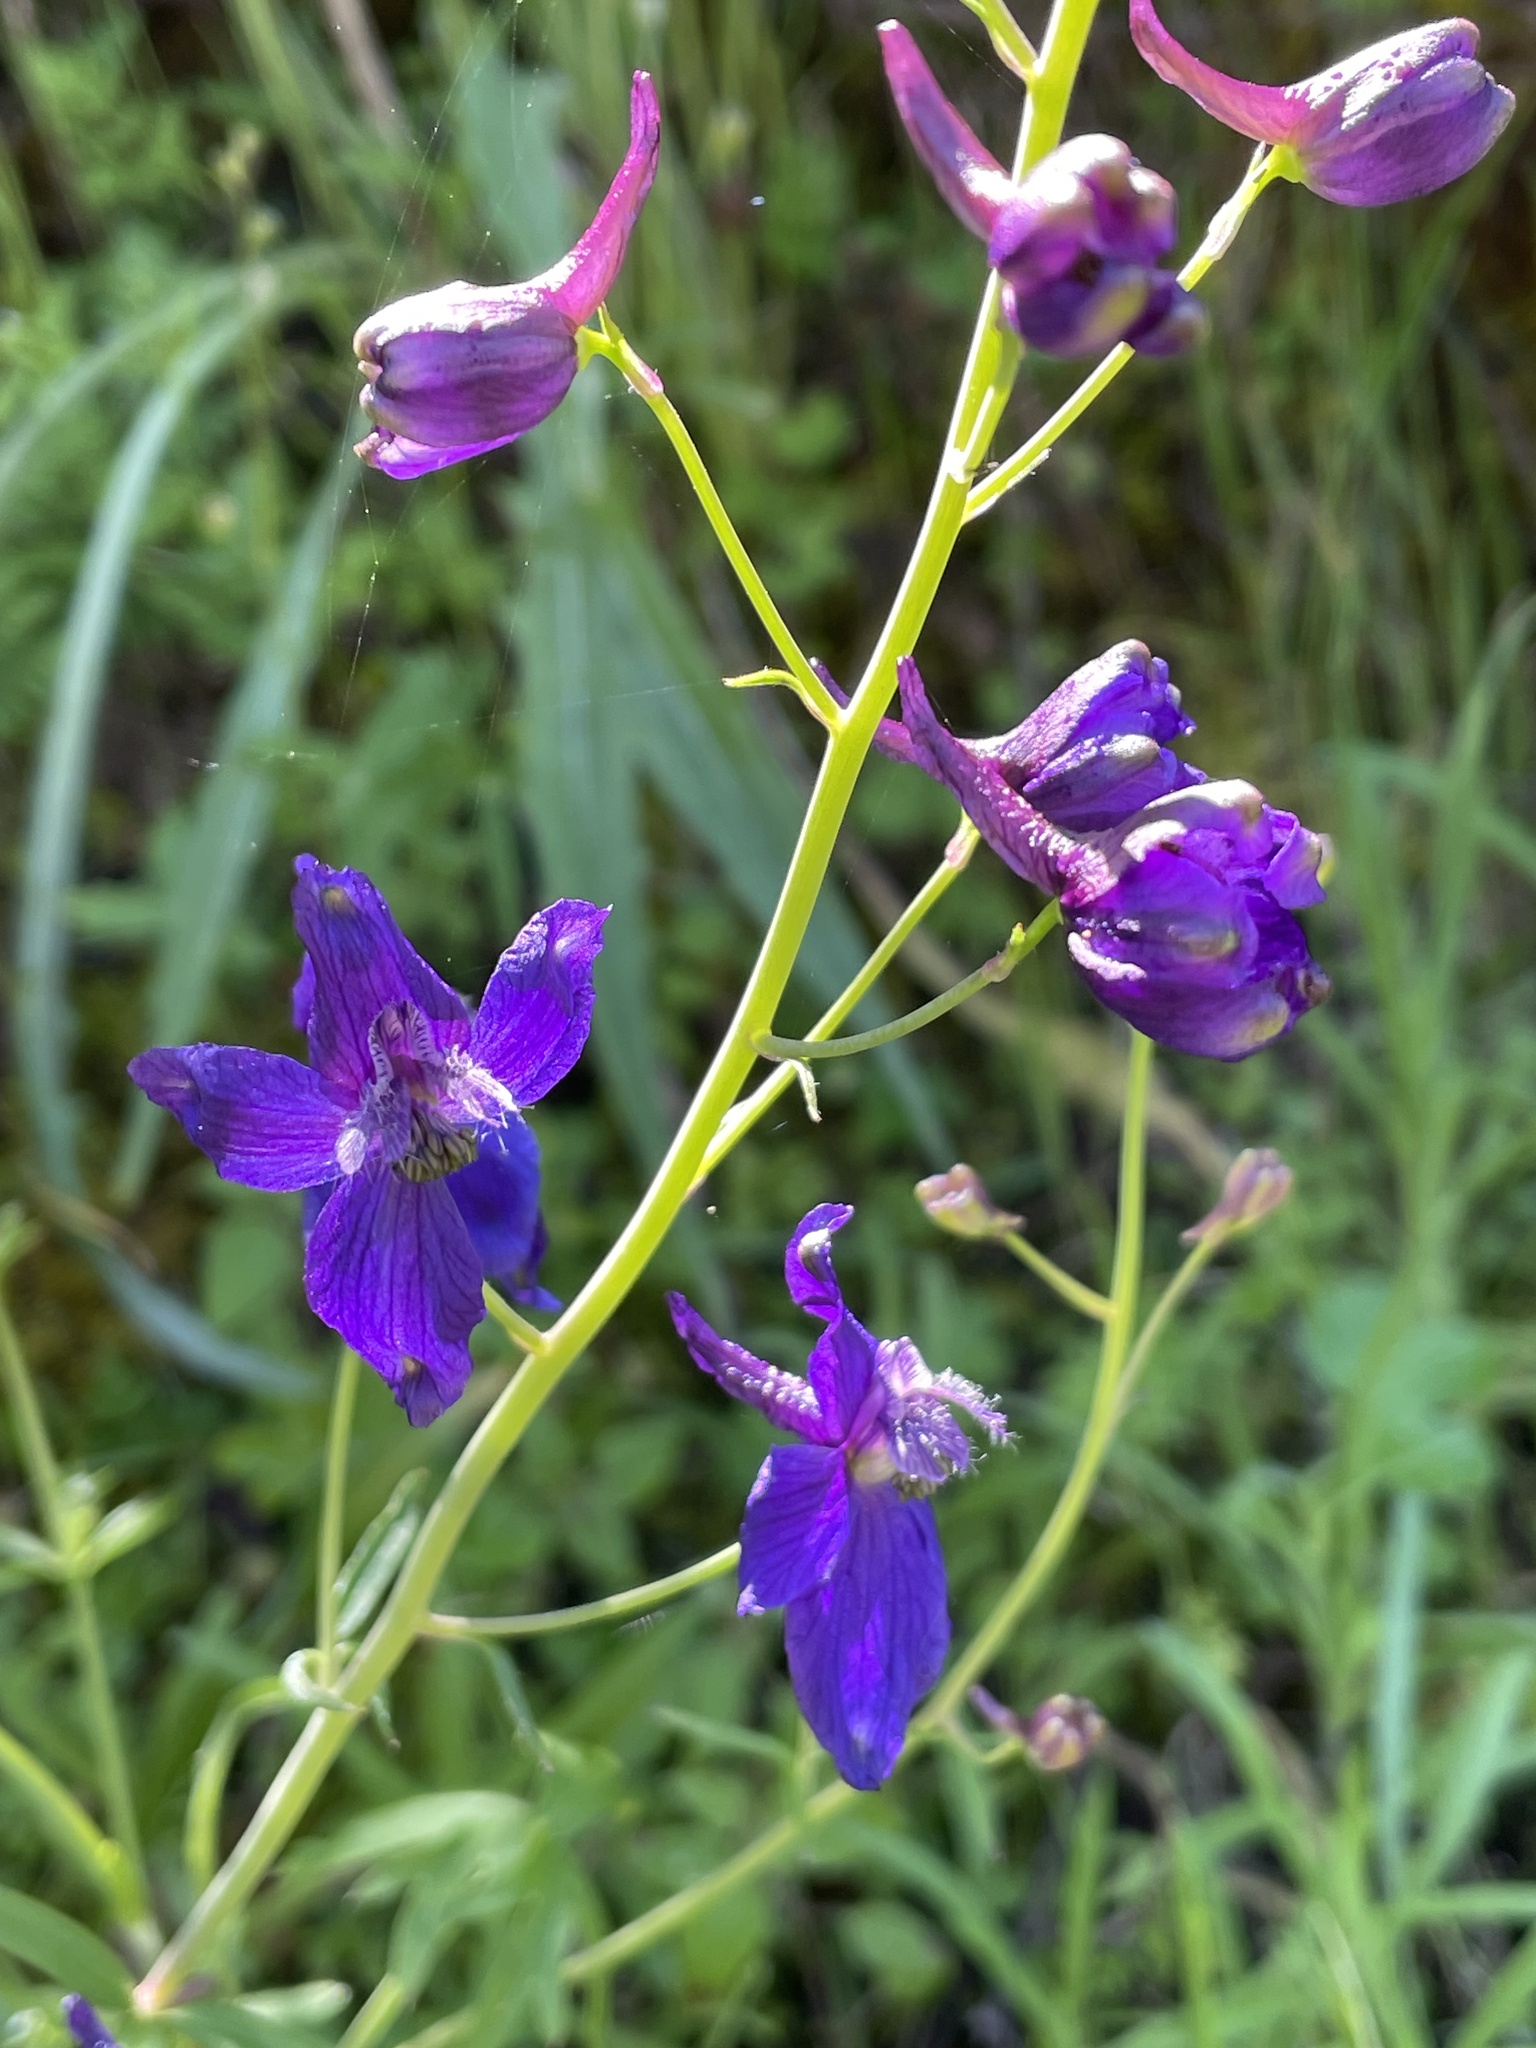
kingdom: Plantae
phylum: Tracheophyta
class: Magnoliopsida
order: Ranunculales
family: Ranunculaceae
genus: Delphinium
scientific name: Delphinium patens
